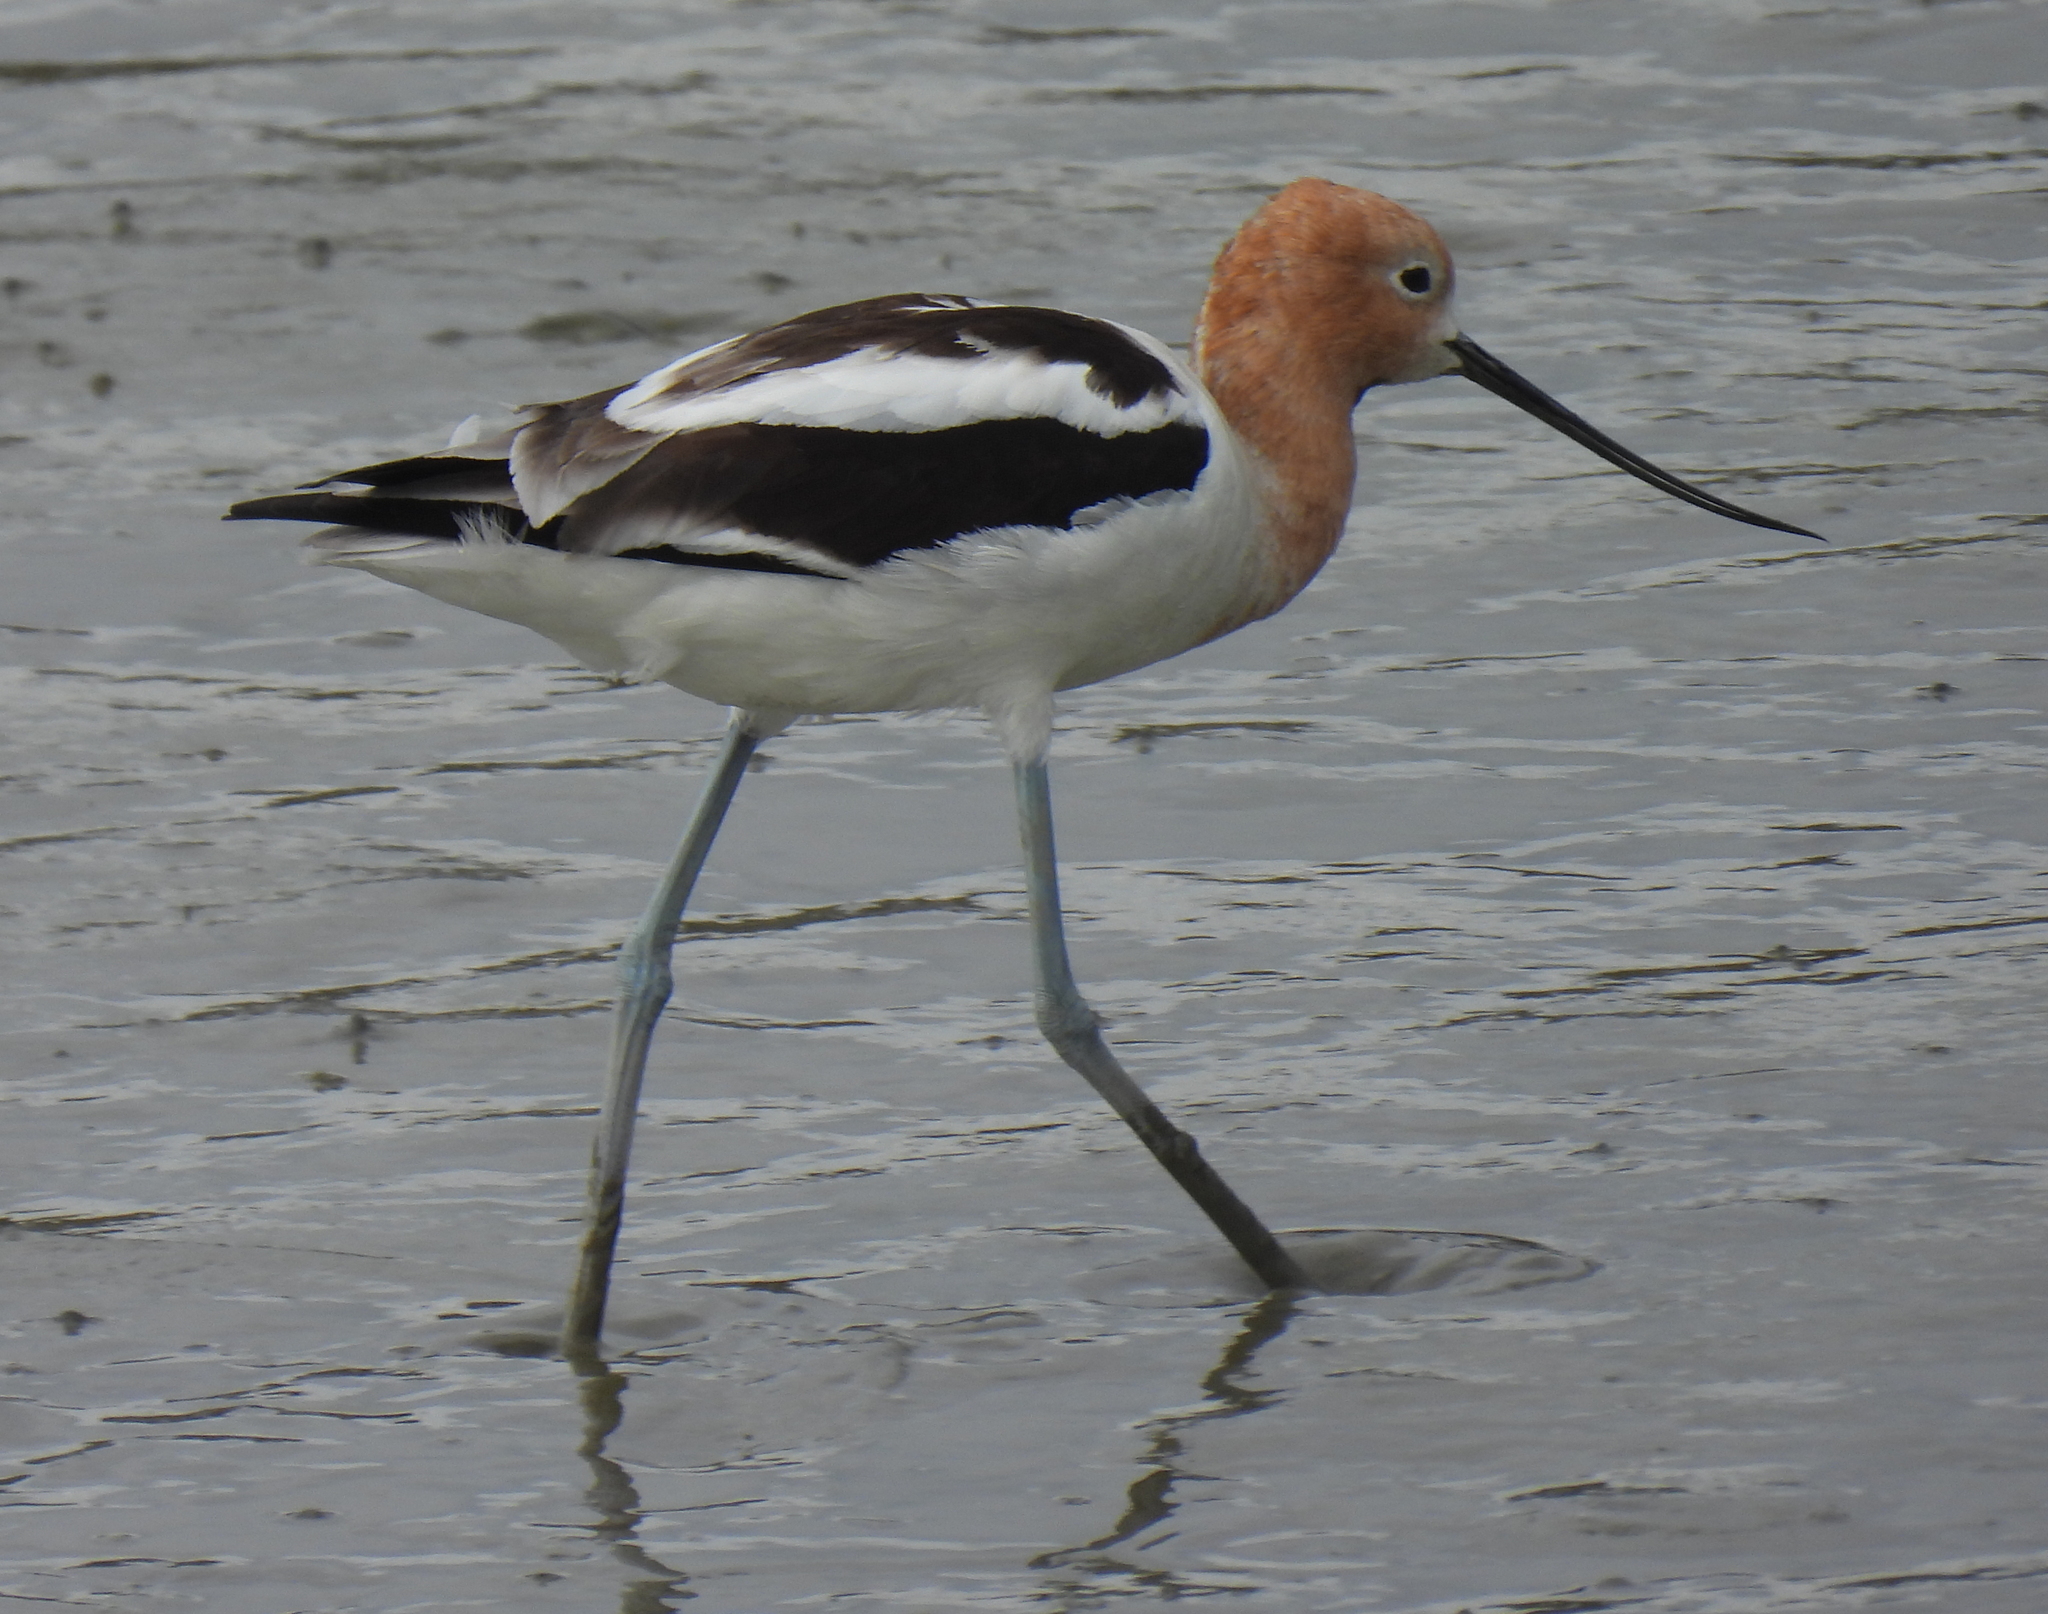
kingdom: Animalia
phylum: Chordata
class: Aves
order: Charadriiformes
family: Recurvirostridae
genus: Recurvirostra
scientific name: Recurvirostra americana
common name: American avocet
